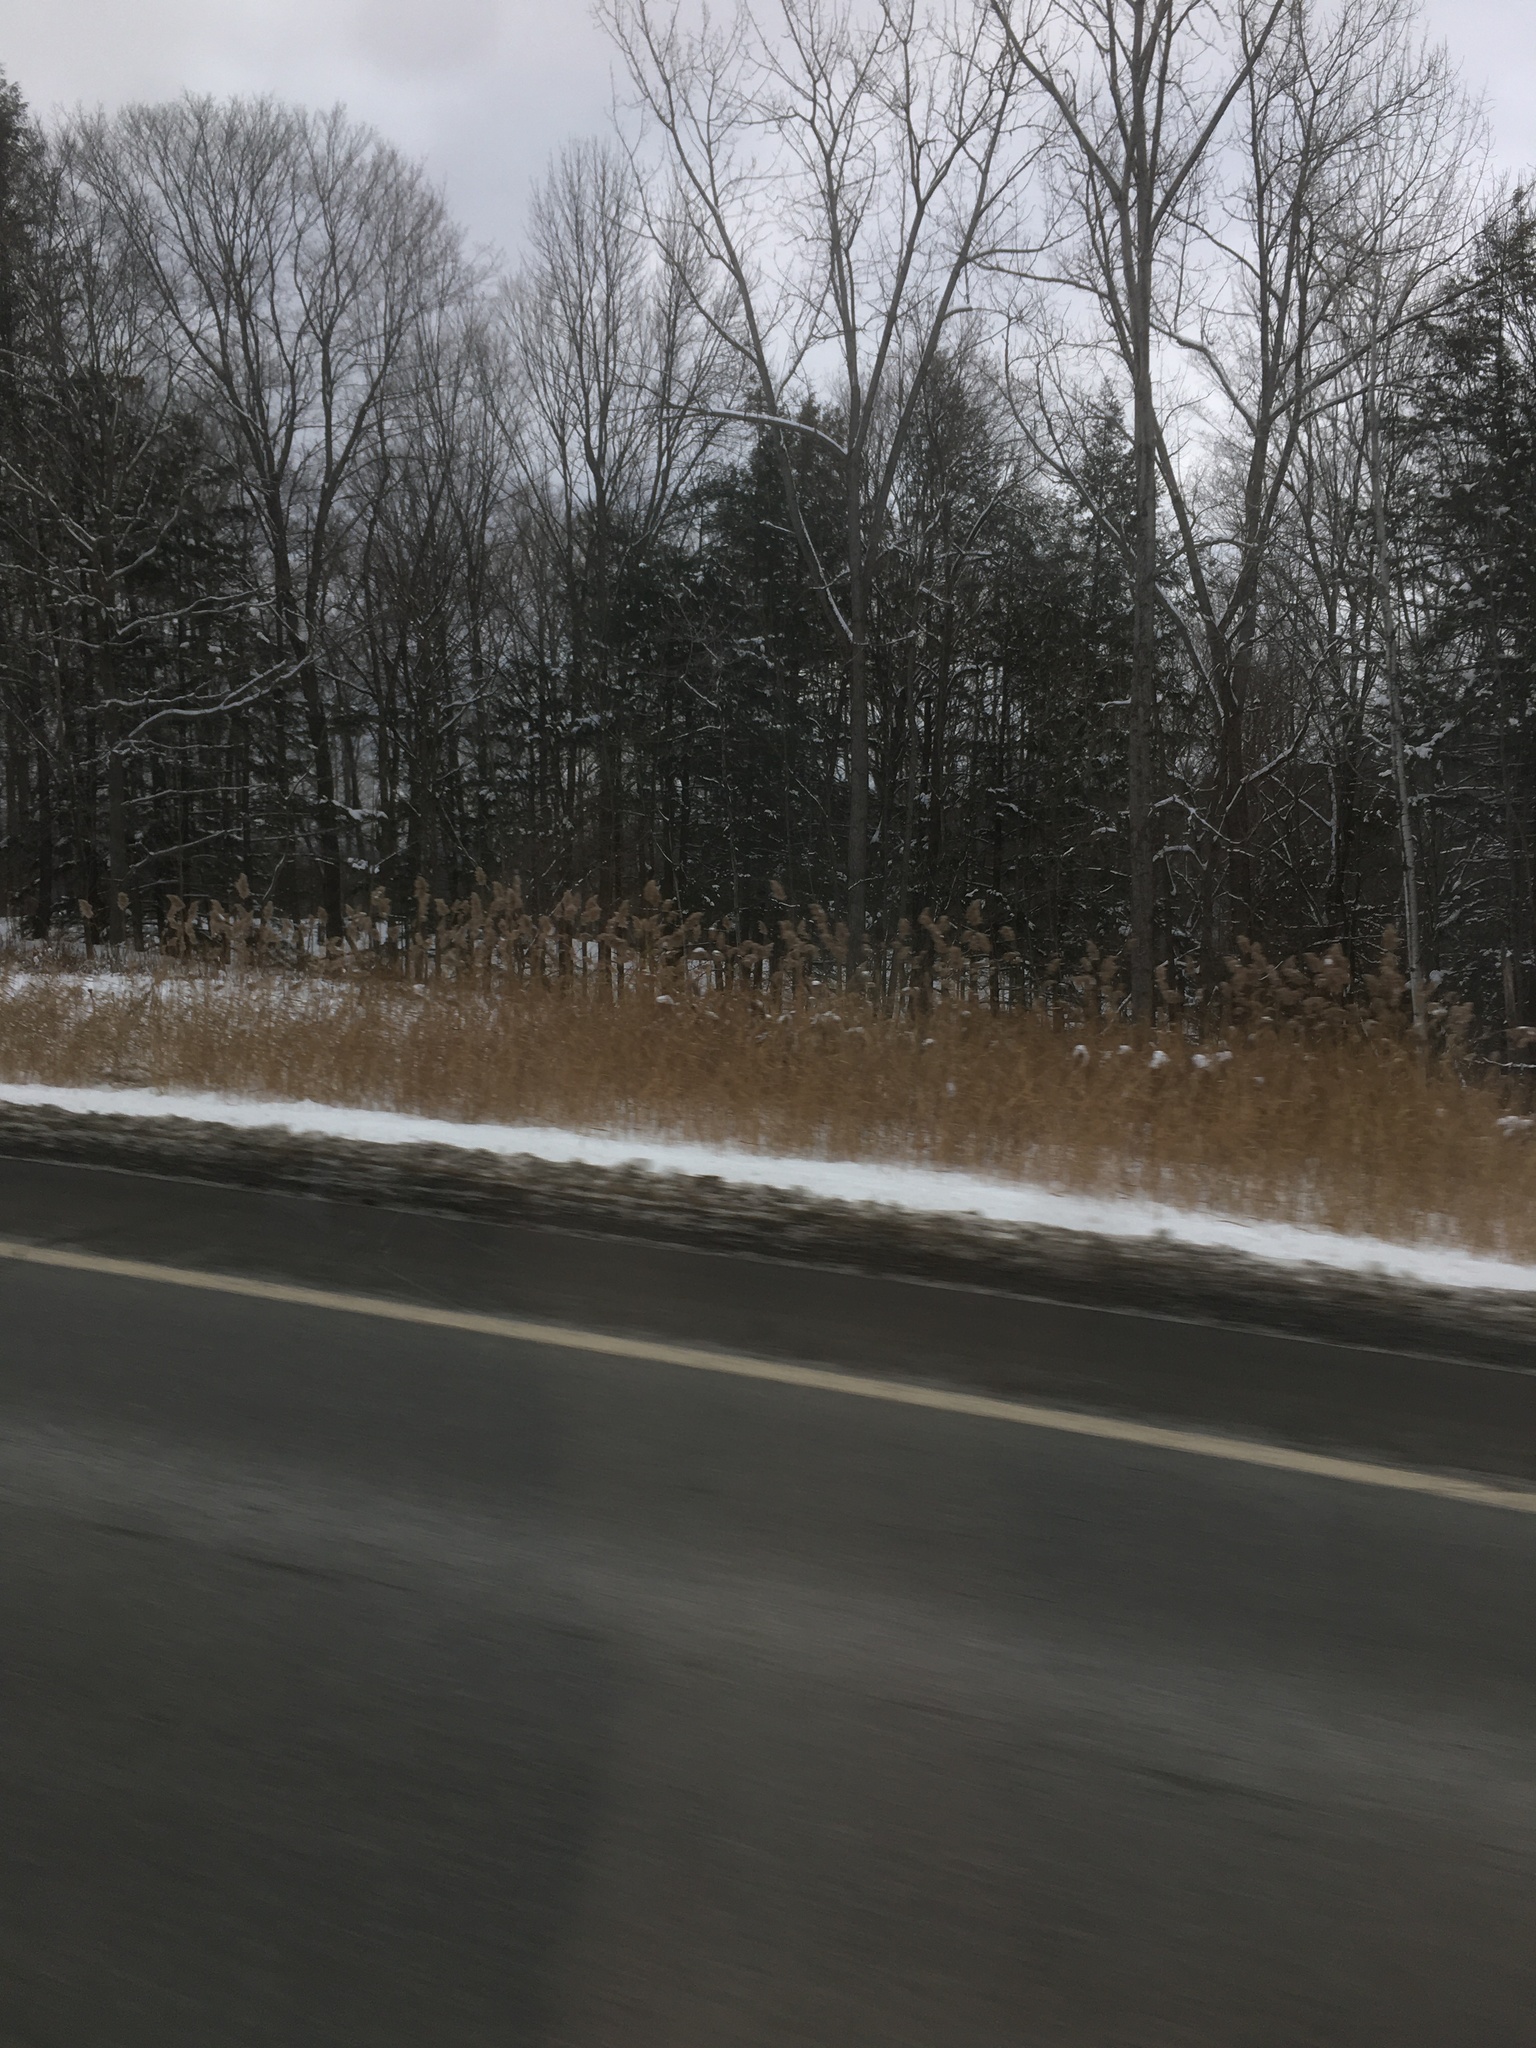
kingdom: Plantae
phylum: Tracheophyta
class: Liliopsida
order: Poales
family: Poaceae
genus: Phragmites
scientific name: Phragmites australis
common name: Common reed
